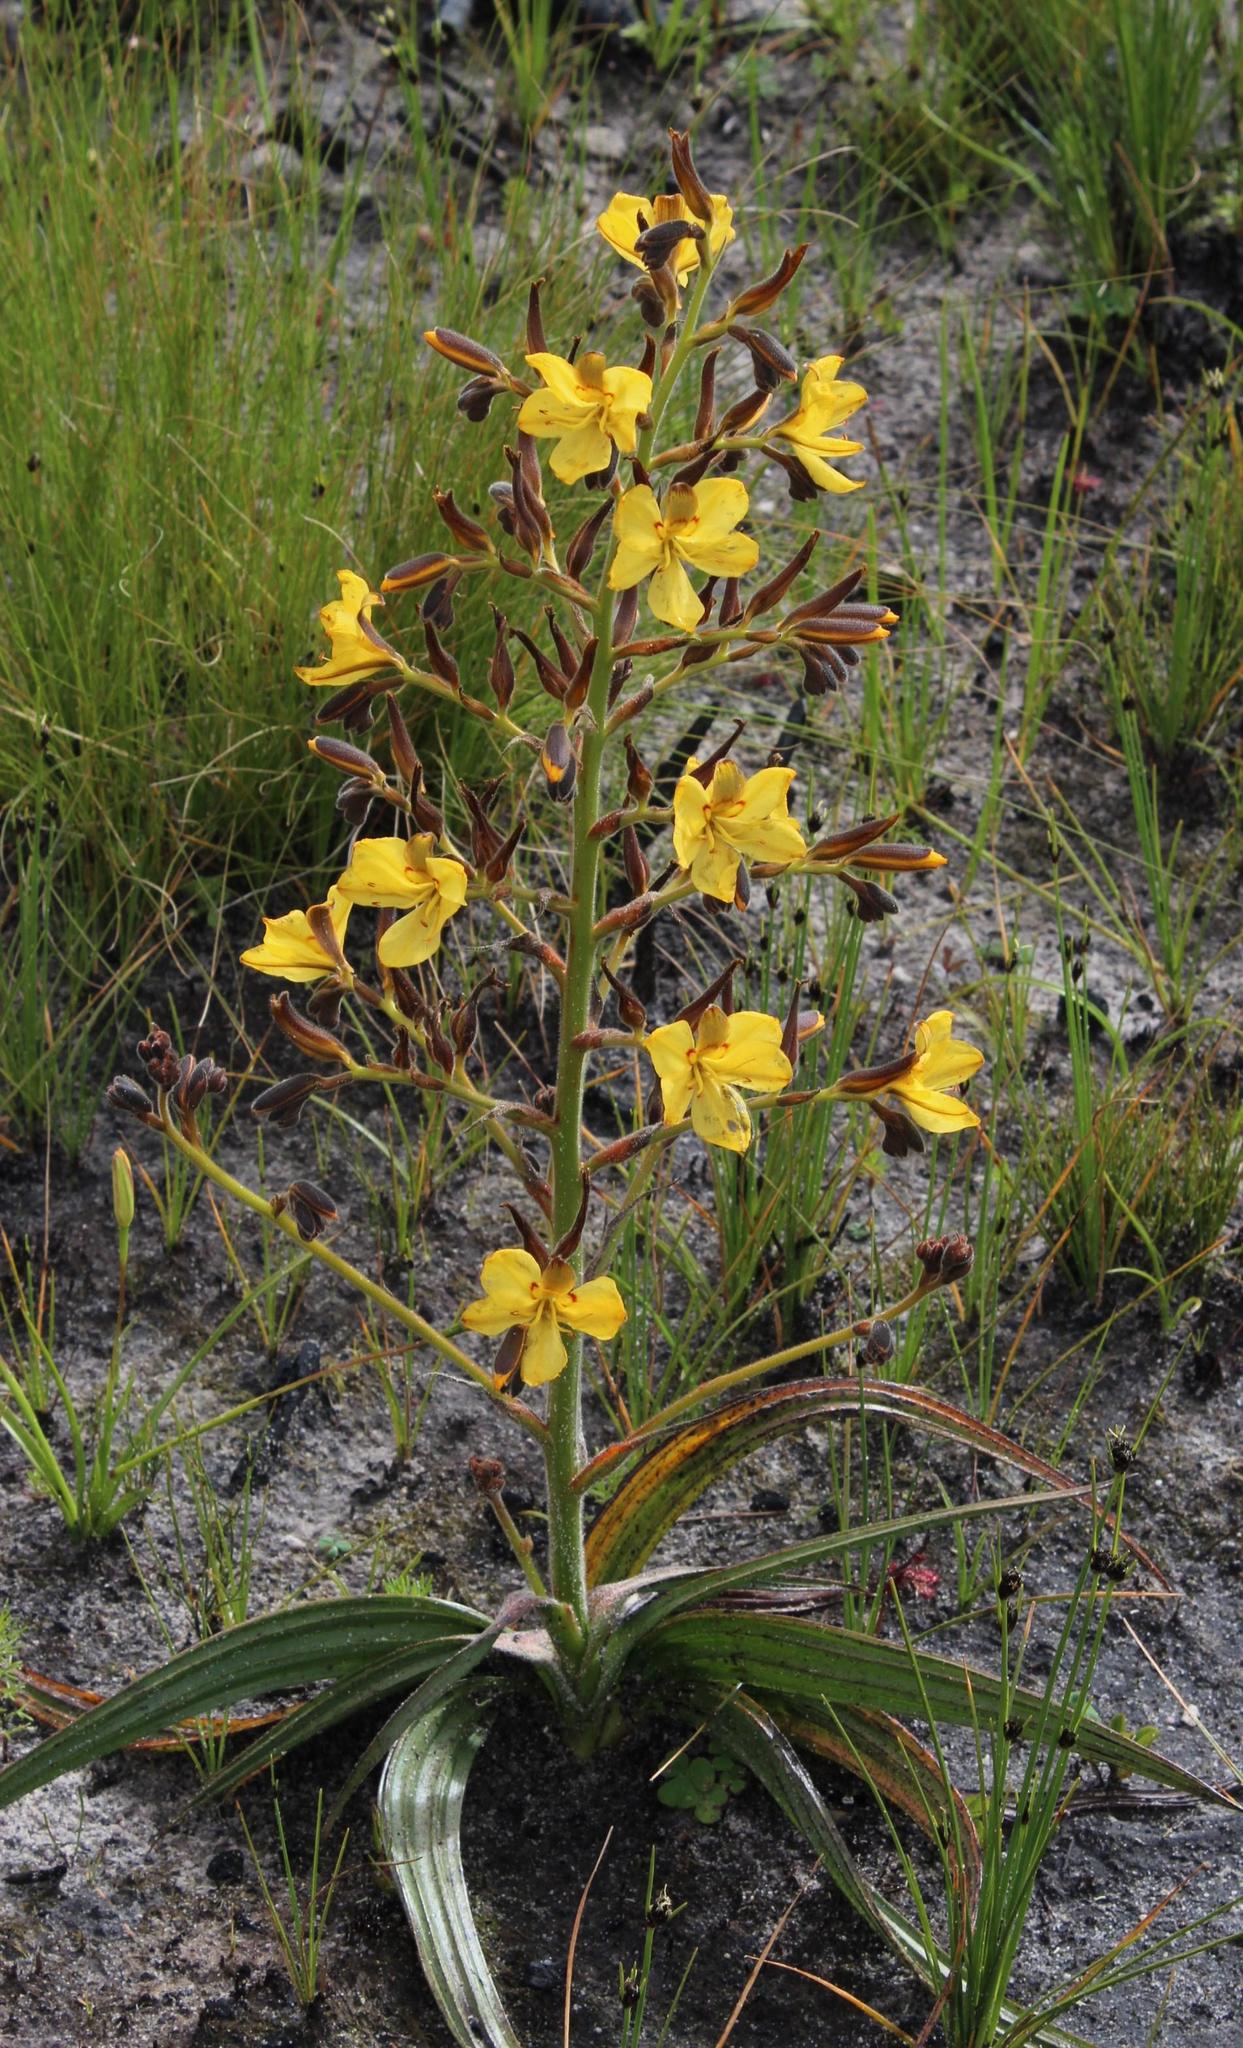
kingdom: Plantae
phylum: Tracheophyta
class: Liliopsida
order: Commelinales
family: Haemodoraceae
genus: Wachendorfia
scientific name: Wachendorfia paniculata
